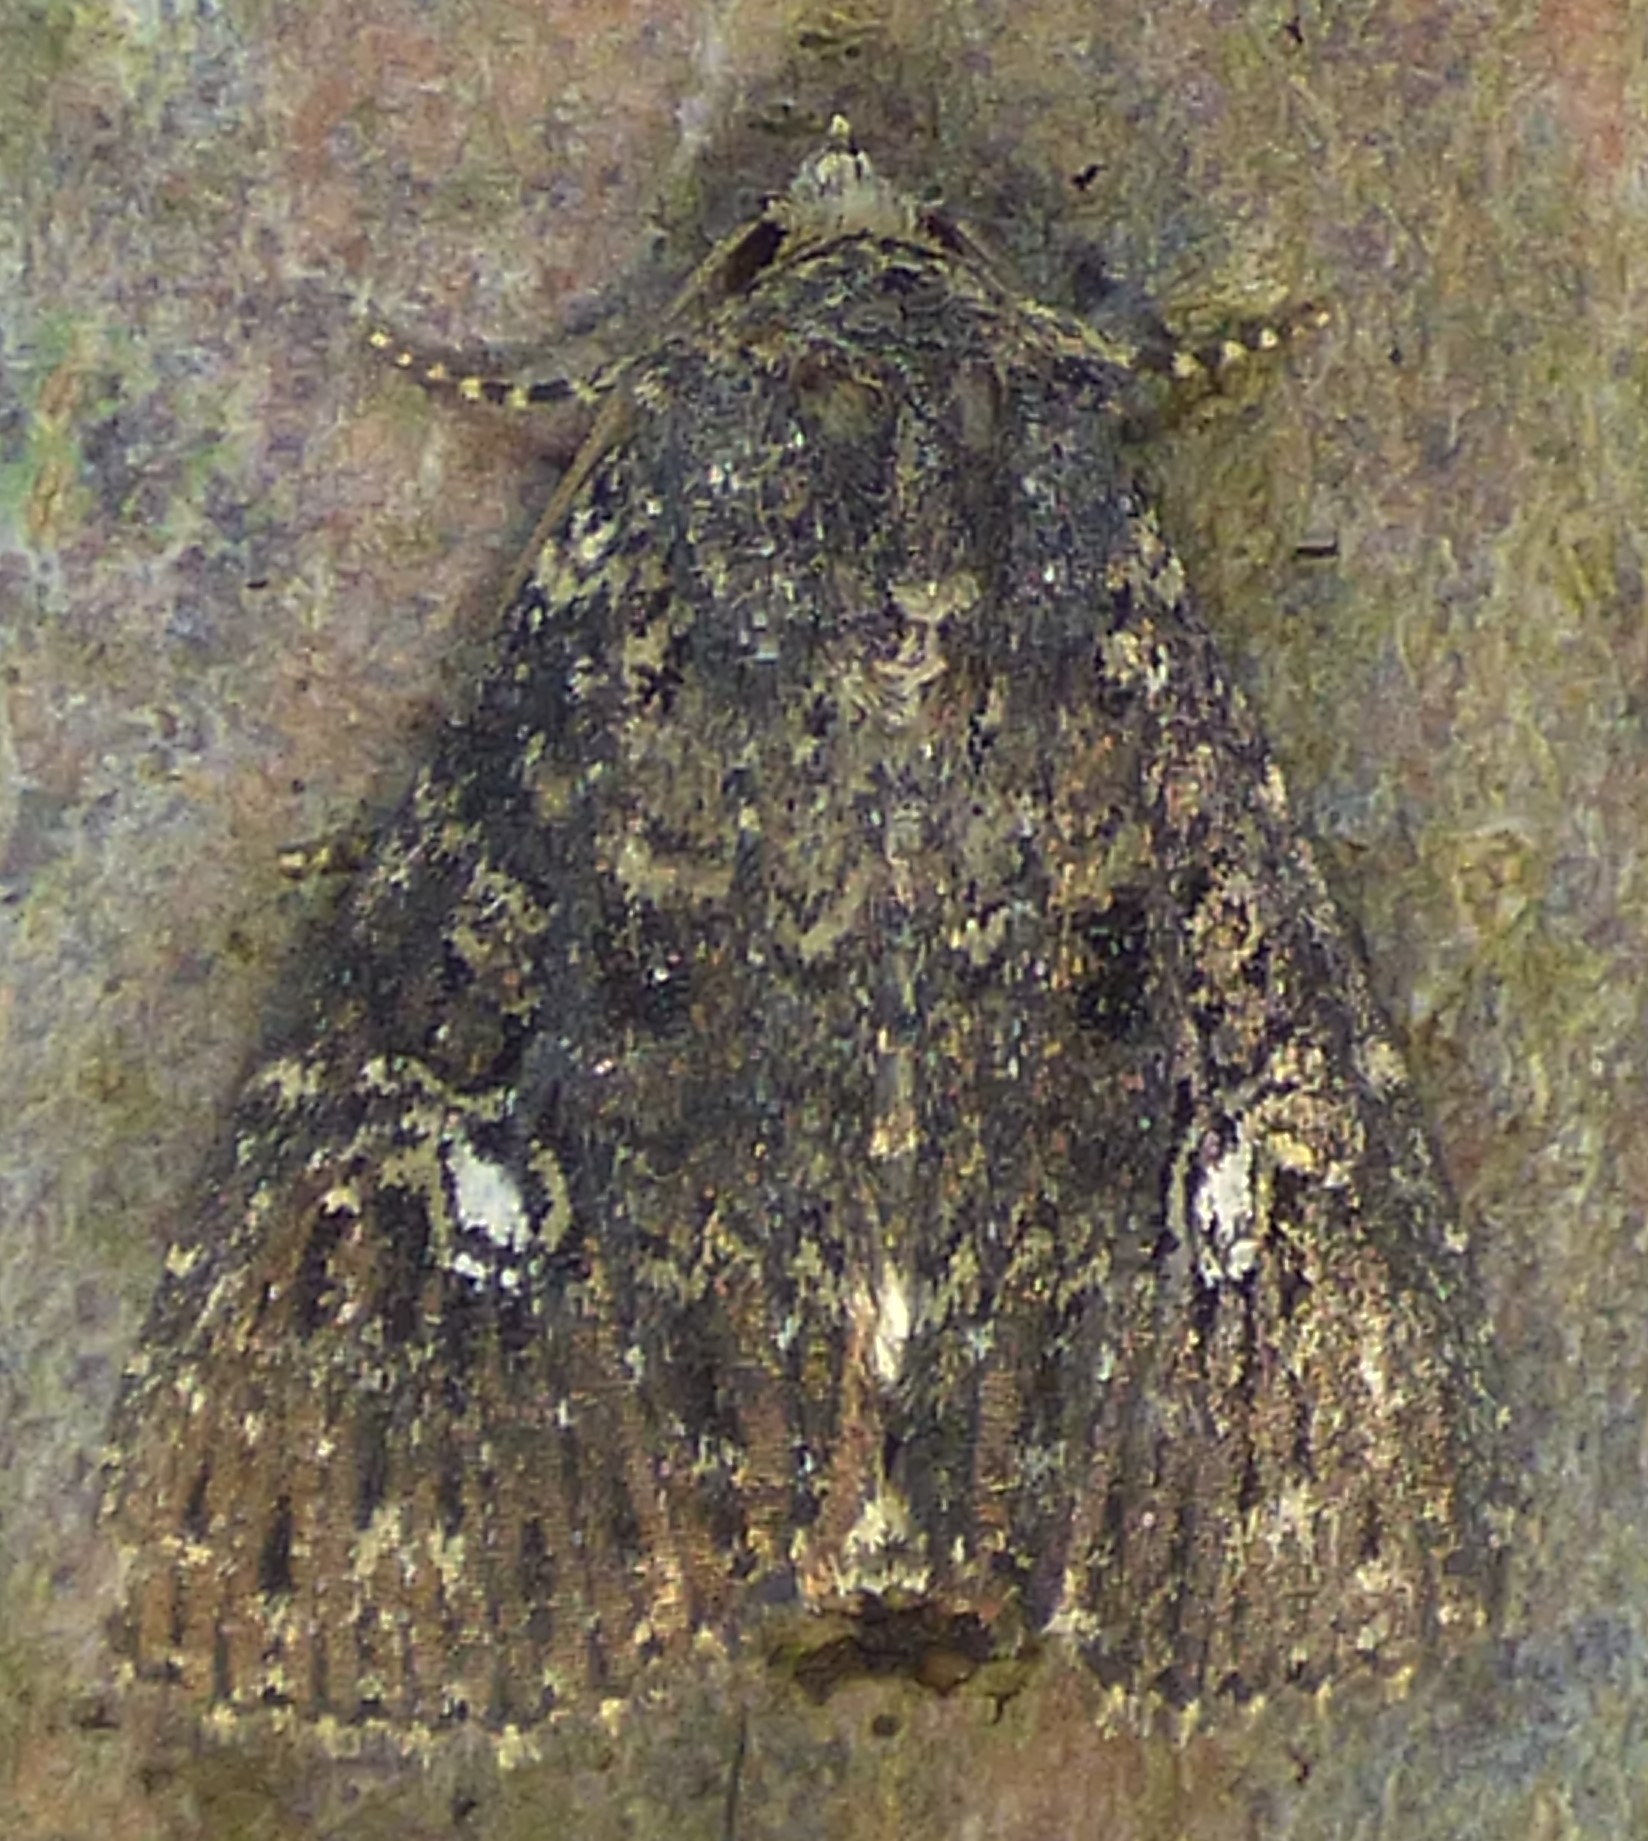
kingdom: Animalia
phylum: Arthropoda
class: Insecta
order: Lepidoptera
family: Noctuidae
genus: Condica
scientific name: Condica vecors
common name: Dusky groundling
